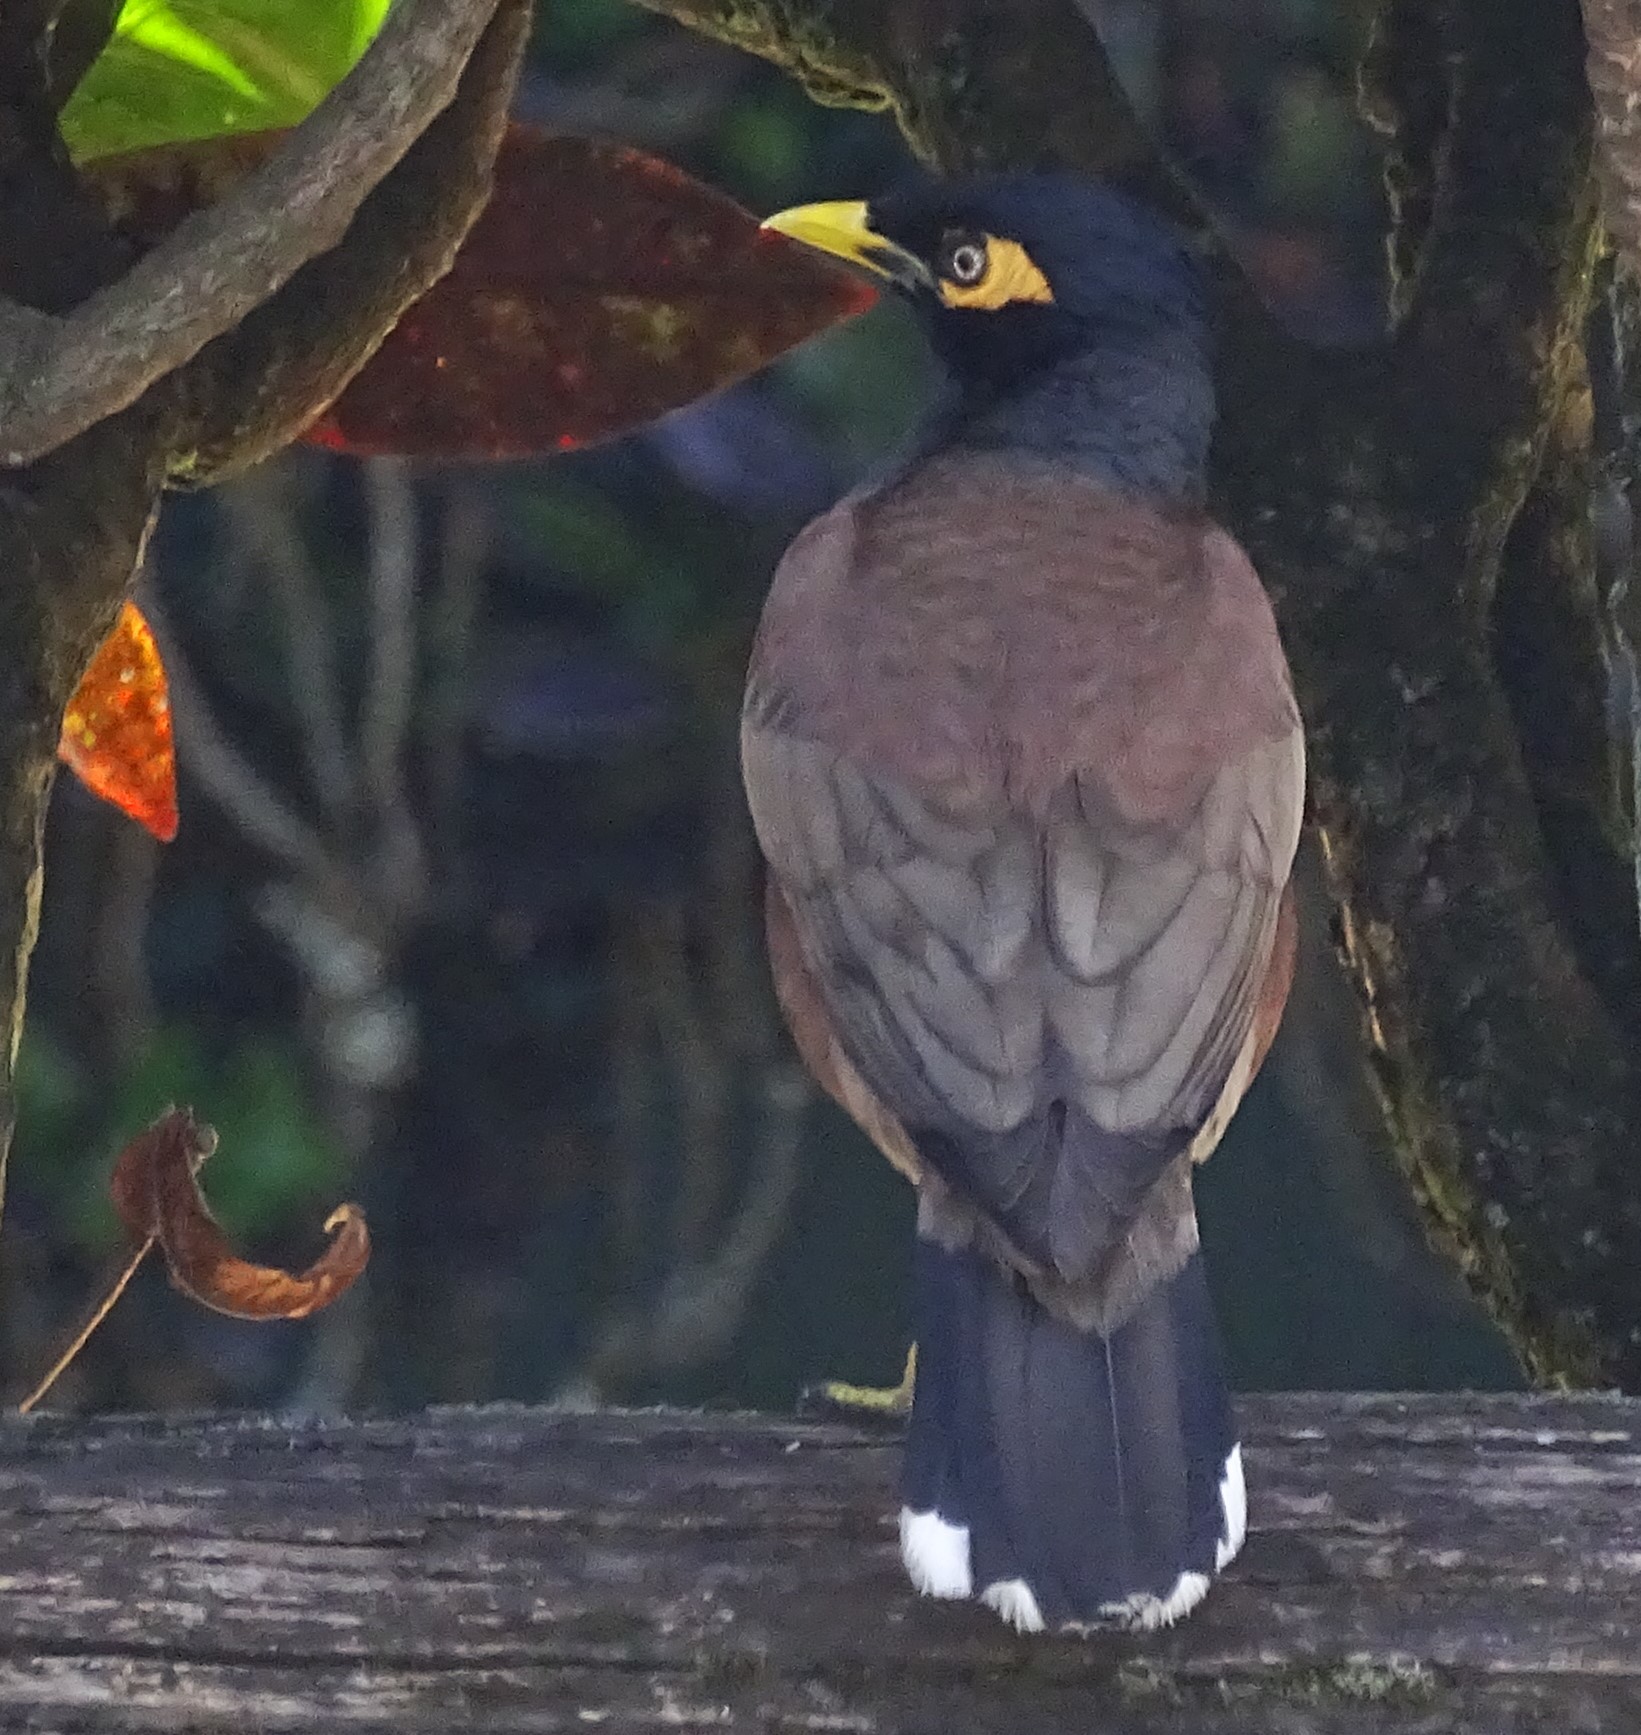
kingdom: Animalia
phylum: Chordata
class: Aves
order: Passeriformes
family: Sturnidae
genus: Acridotheres
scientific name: Acridotheres tristis
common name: Common myna
